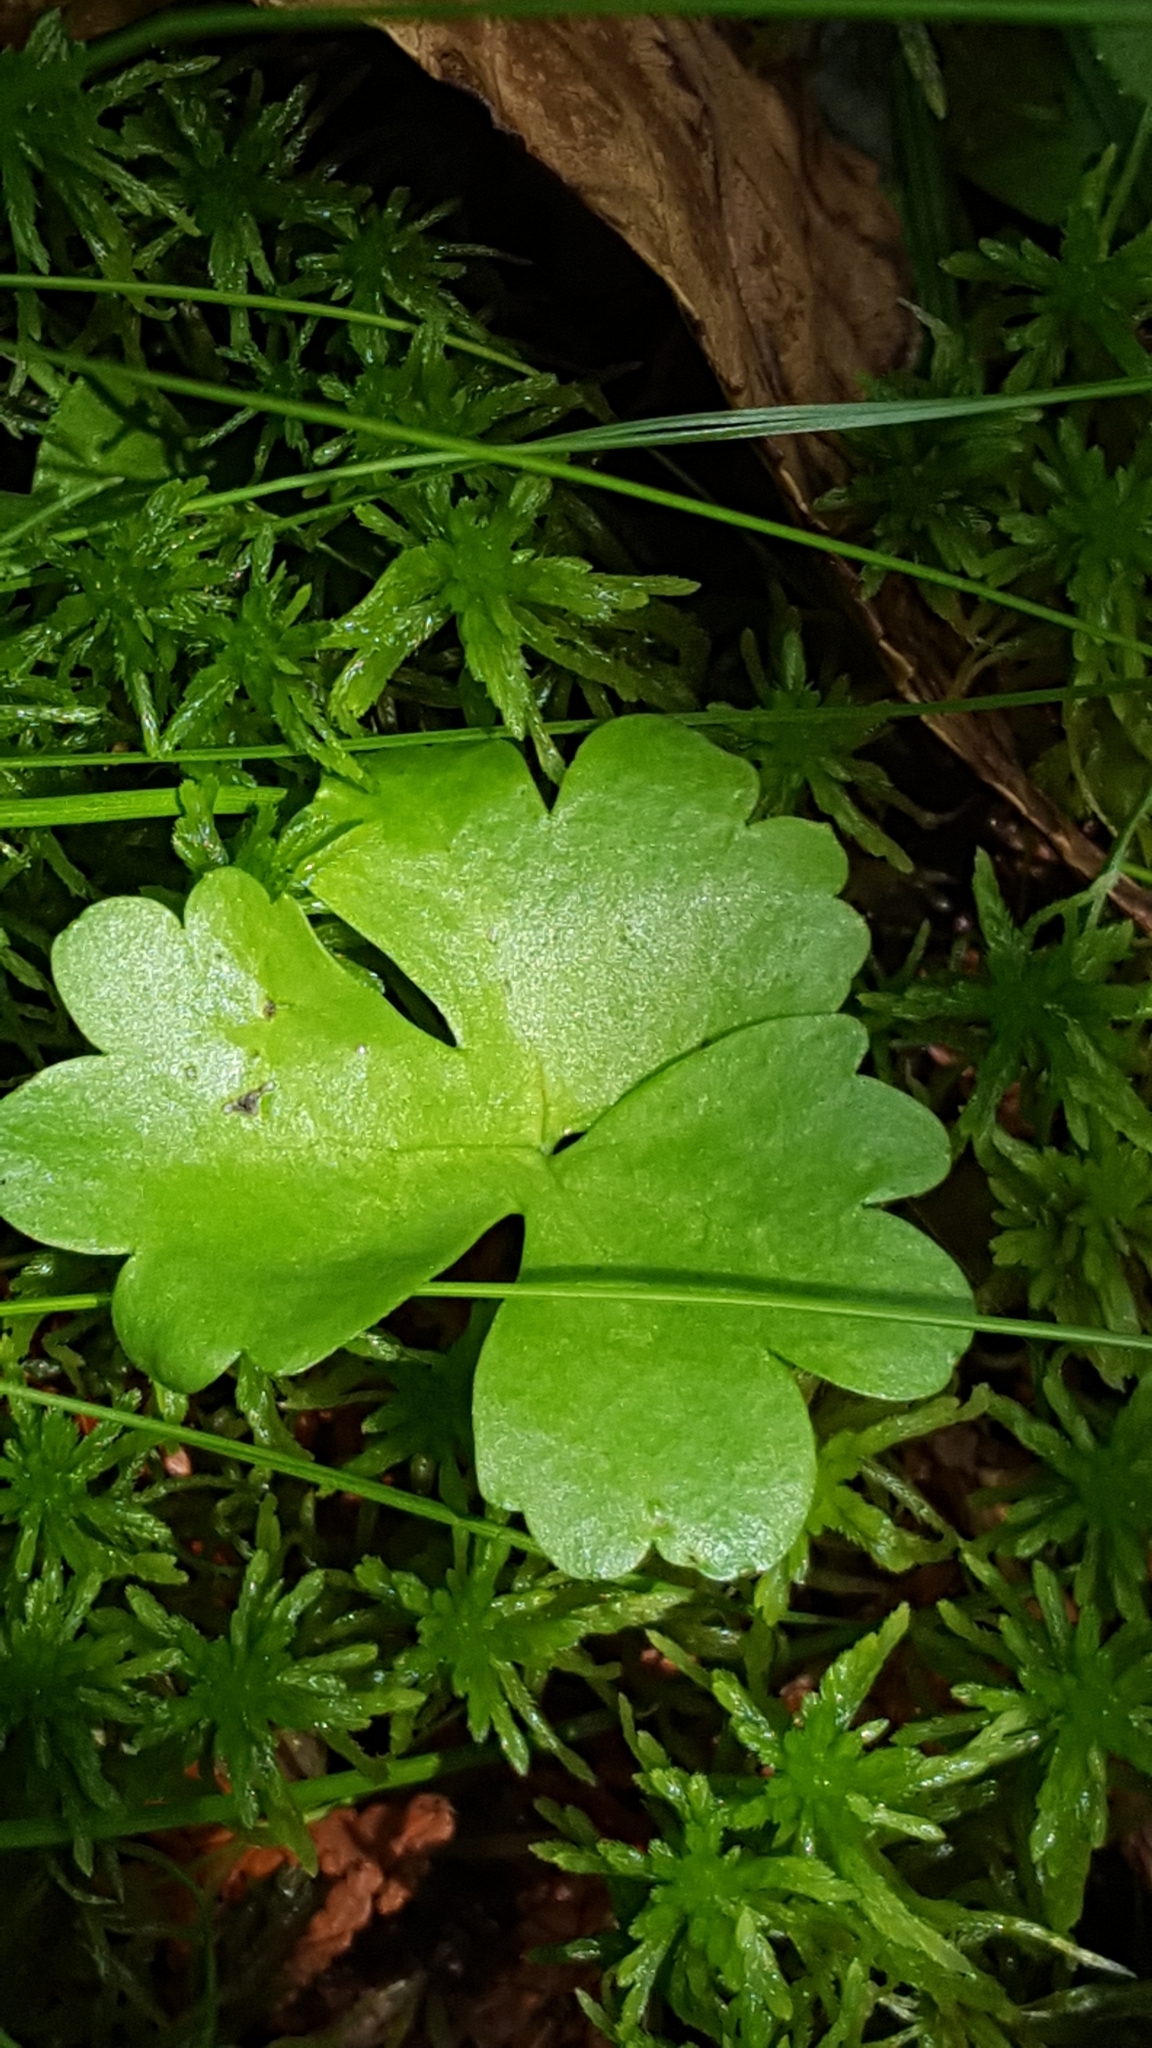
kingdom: Plantae
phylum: Tracheophyta
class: Magnoliopsida
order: Ranunculales
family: Ranunculaceae
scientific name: Ranunculaceae
